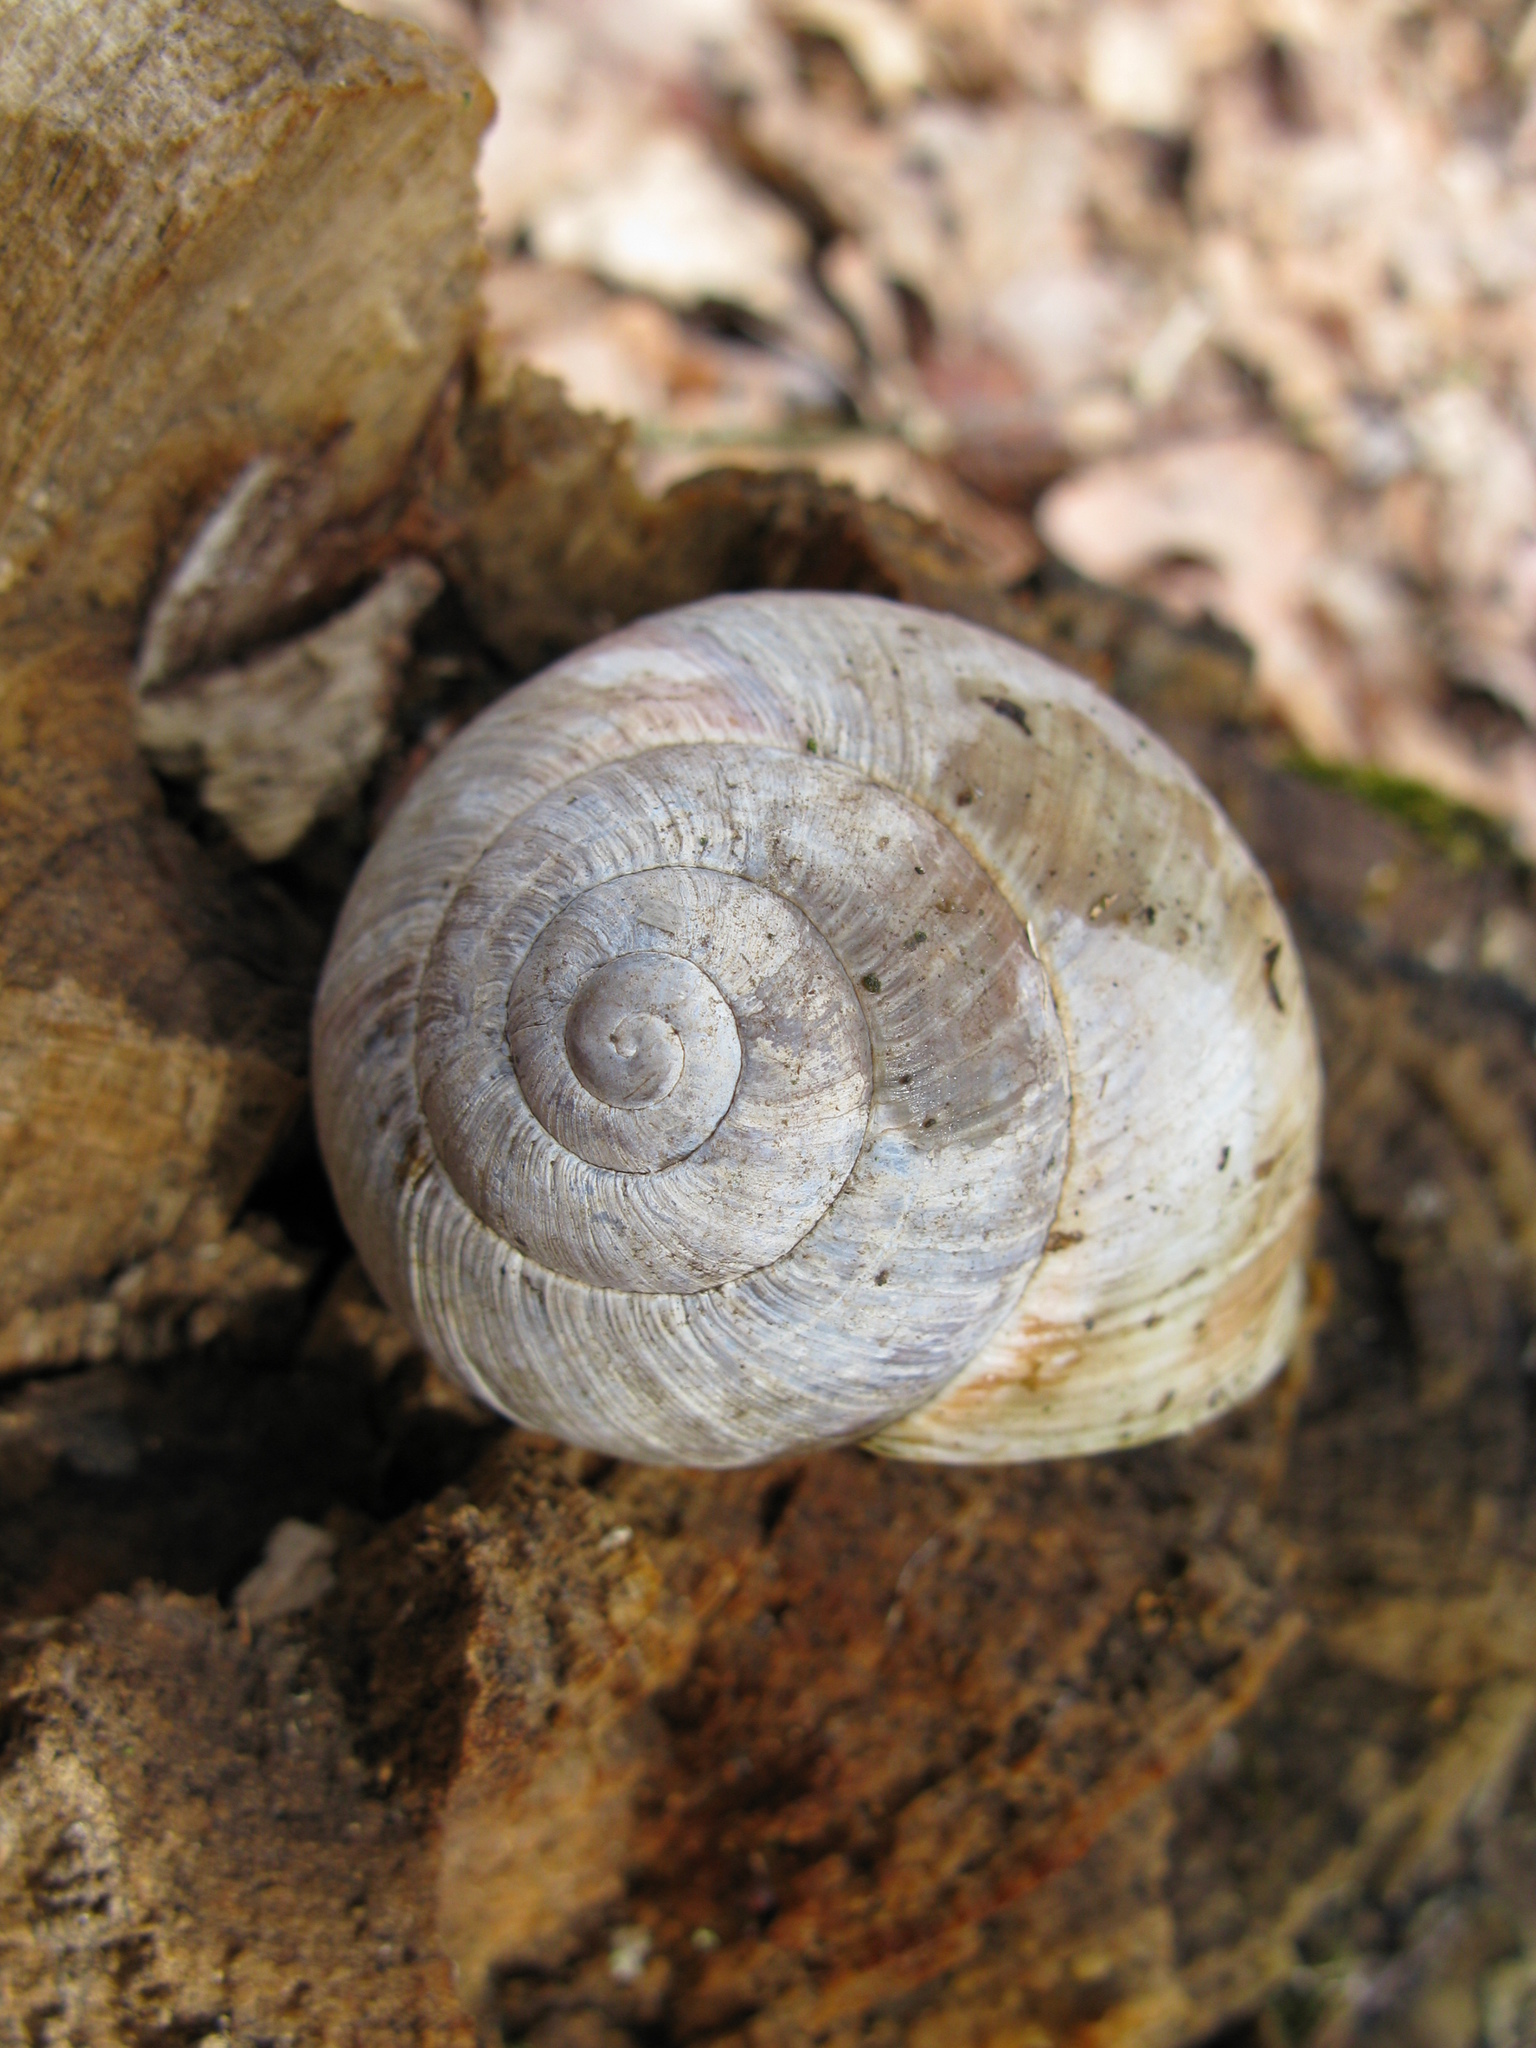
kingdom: Animalia
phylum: Mollusca
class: Gastropoda
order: Stylommatophora
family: Helicidae
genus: Helix
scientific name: Helix pomatia
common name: Roman snail
